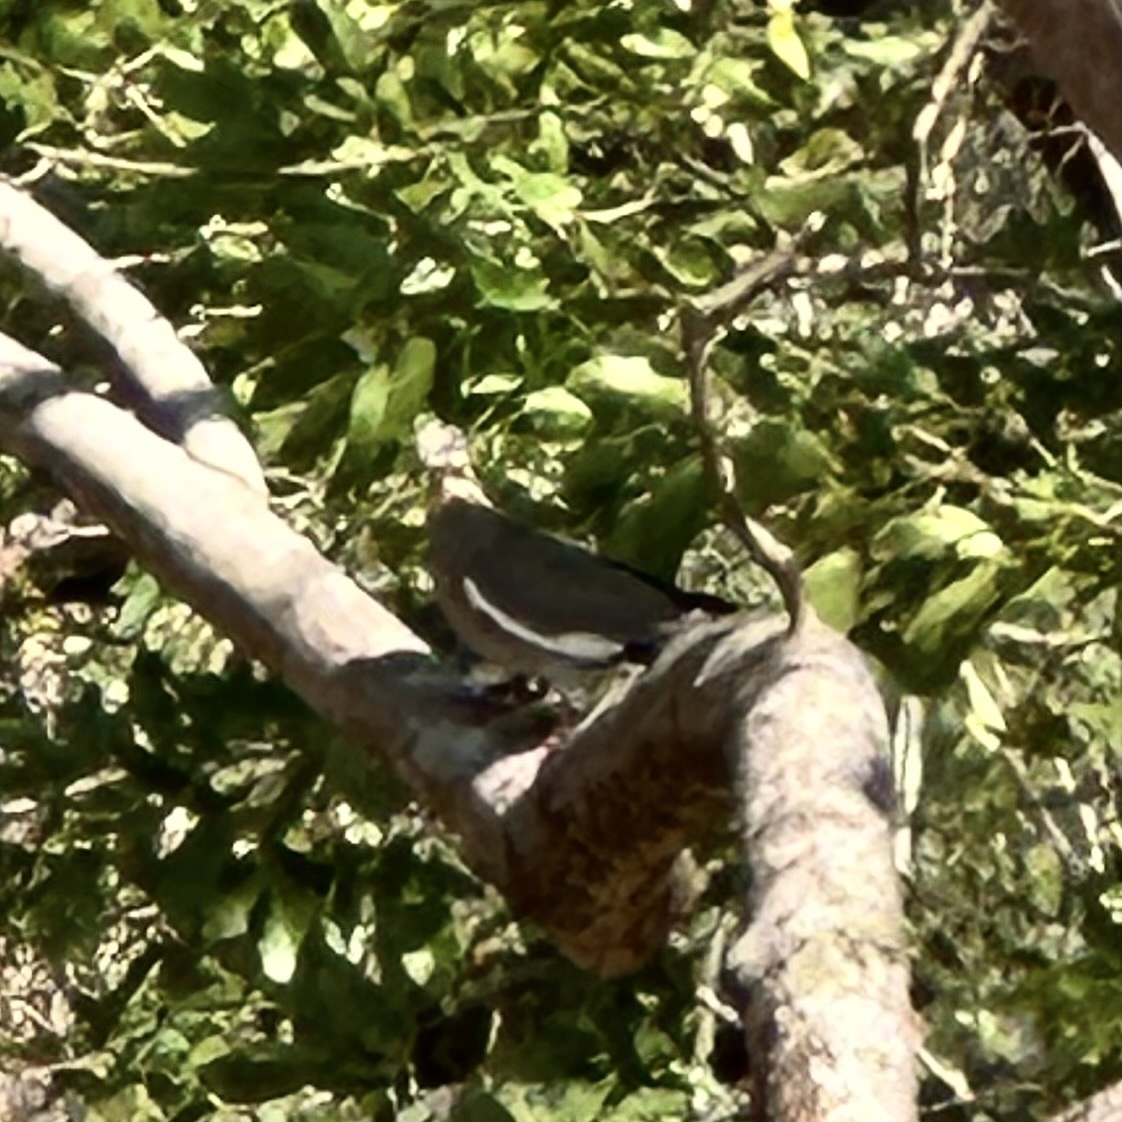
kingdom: Animalia
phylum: Chordata
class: Aves
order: Columbiformes
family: Columbidae
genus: Zenaida
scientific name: Zenaida asiatica
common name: White-winged dove
